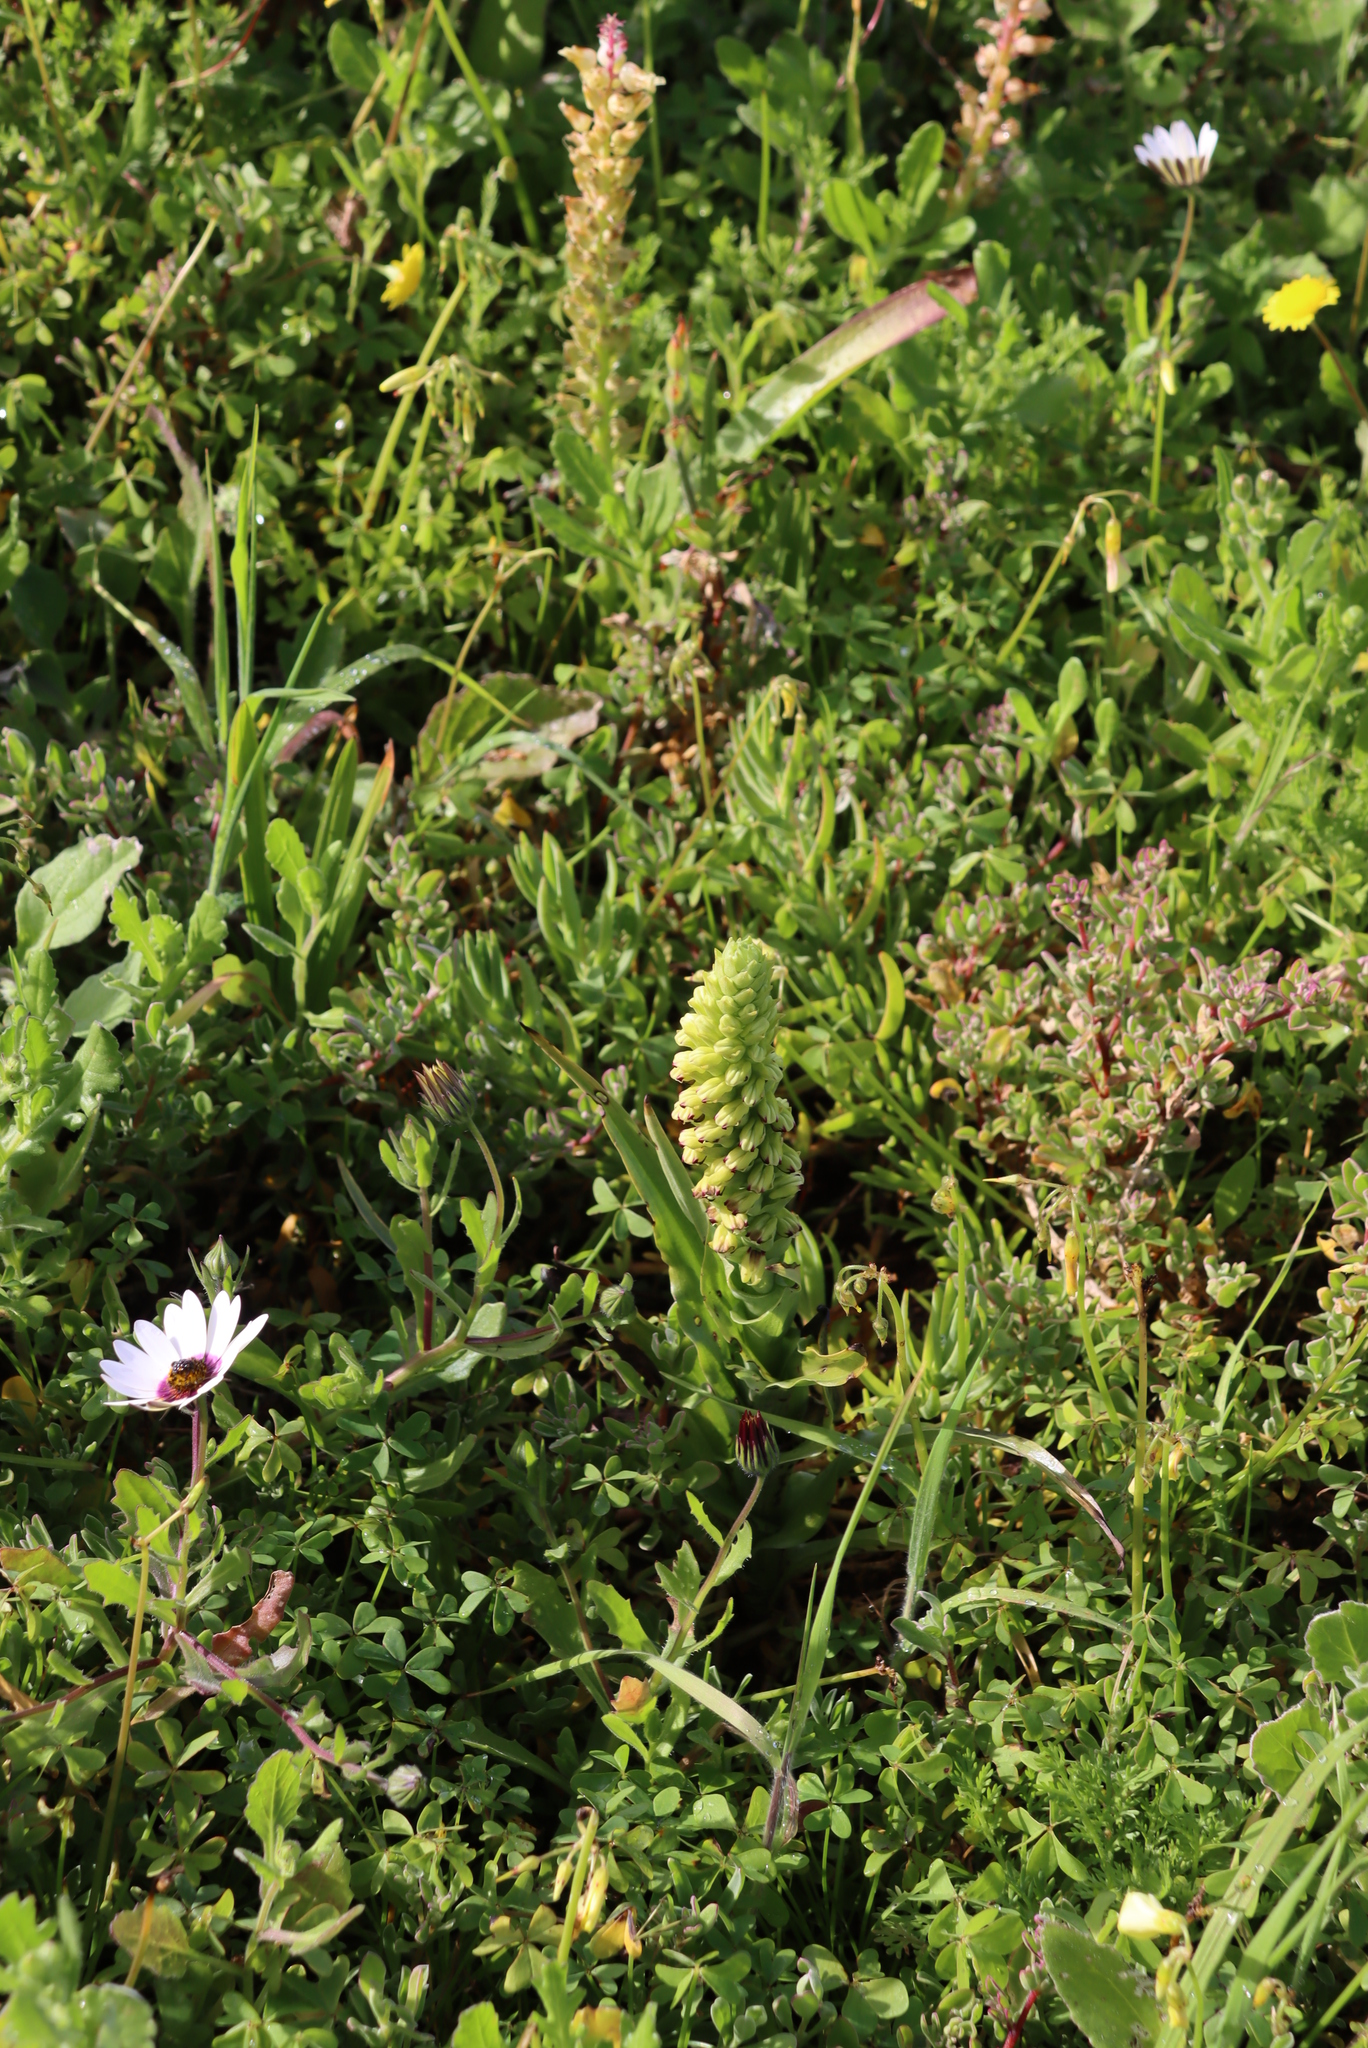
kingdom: Plantae
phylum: Tracheophyta
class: Liliopsida
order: Asparagales
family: Orchidaceae
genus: Corycium
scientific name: Corycium orobanchoides
